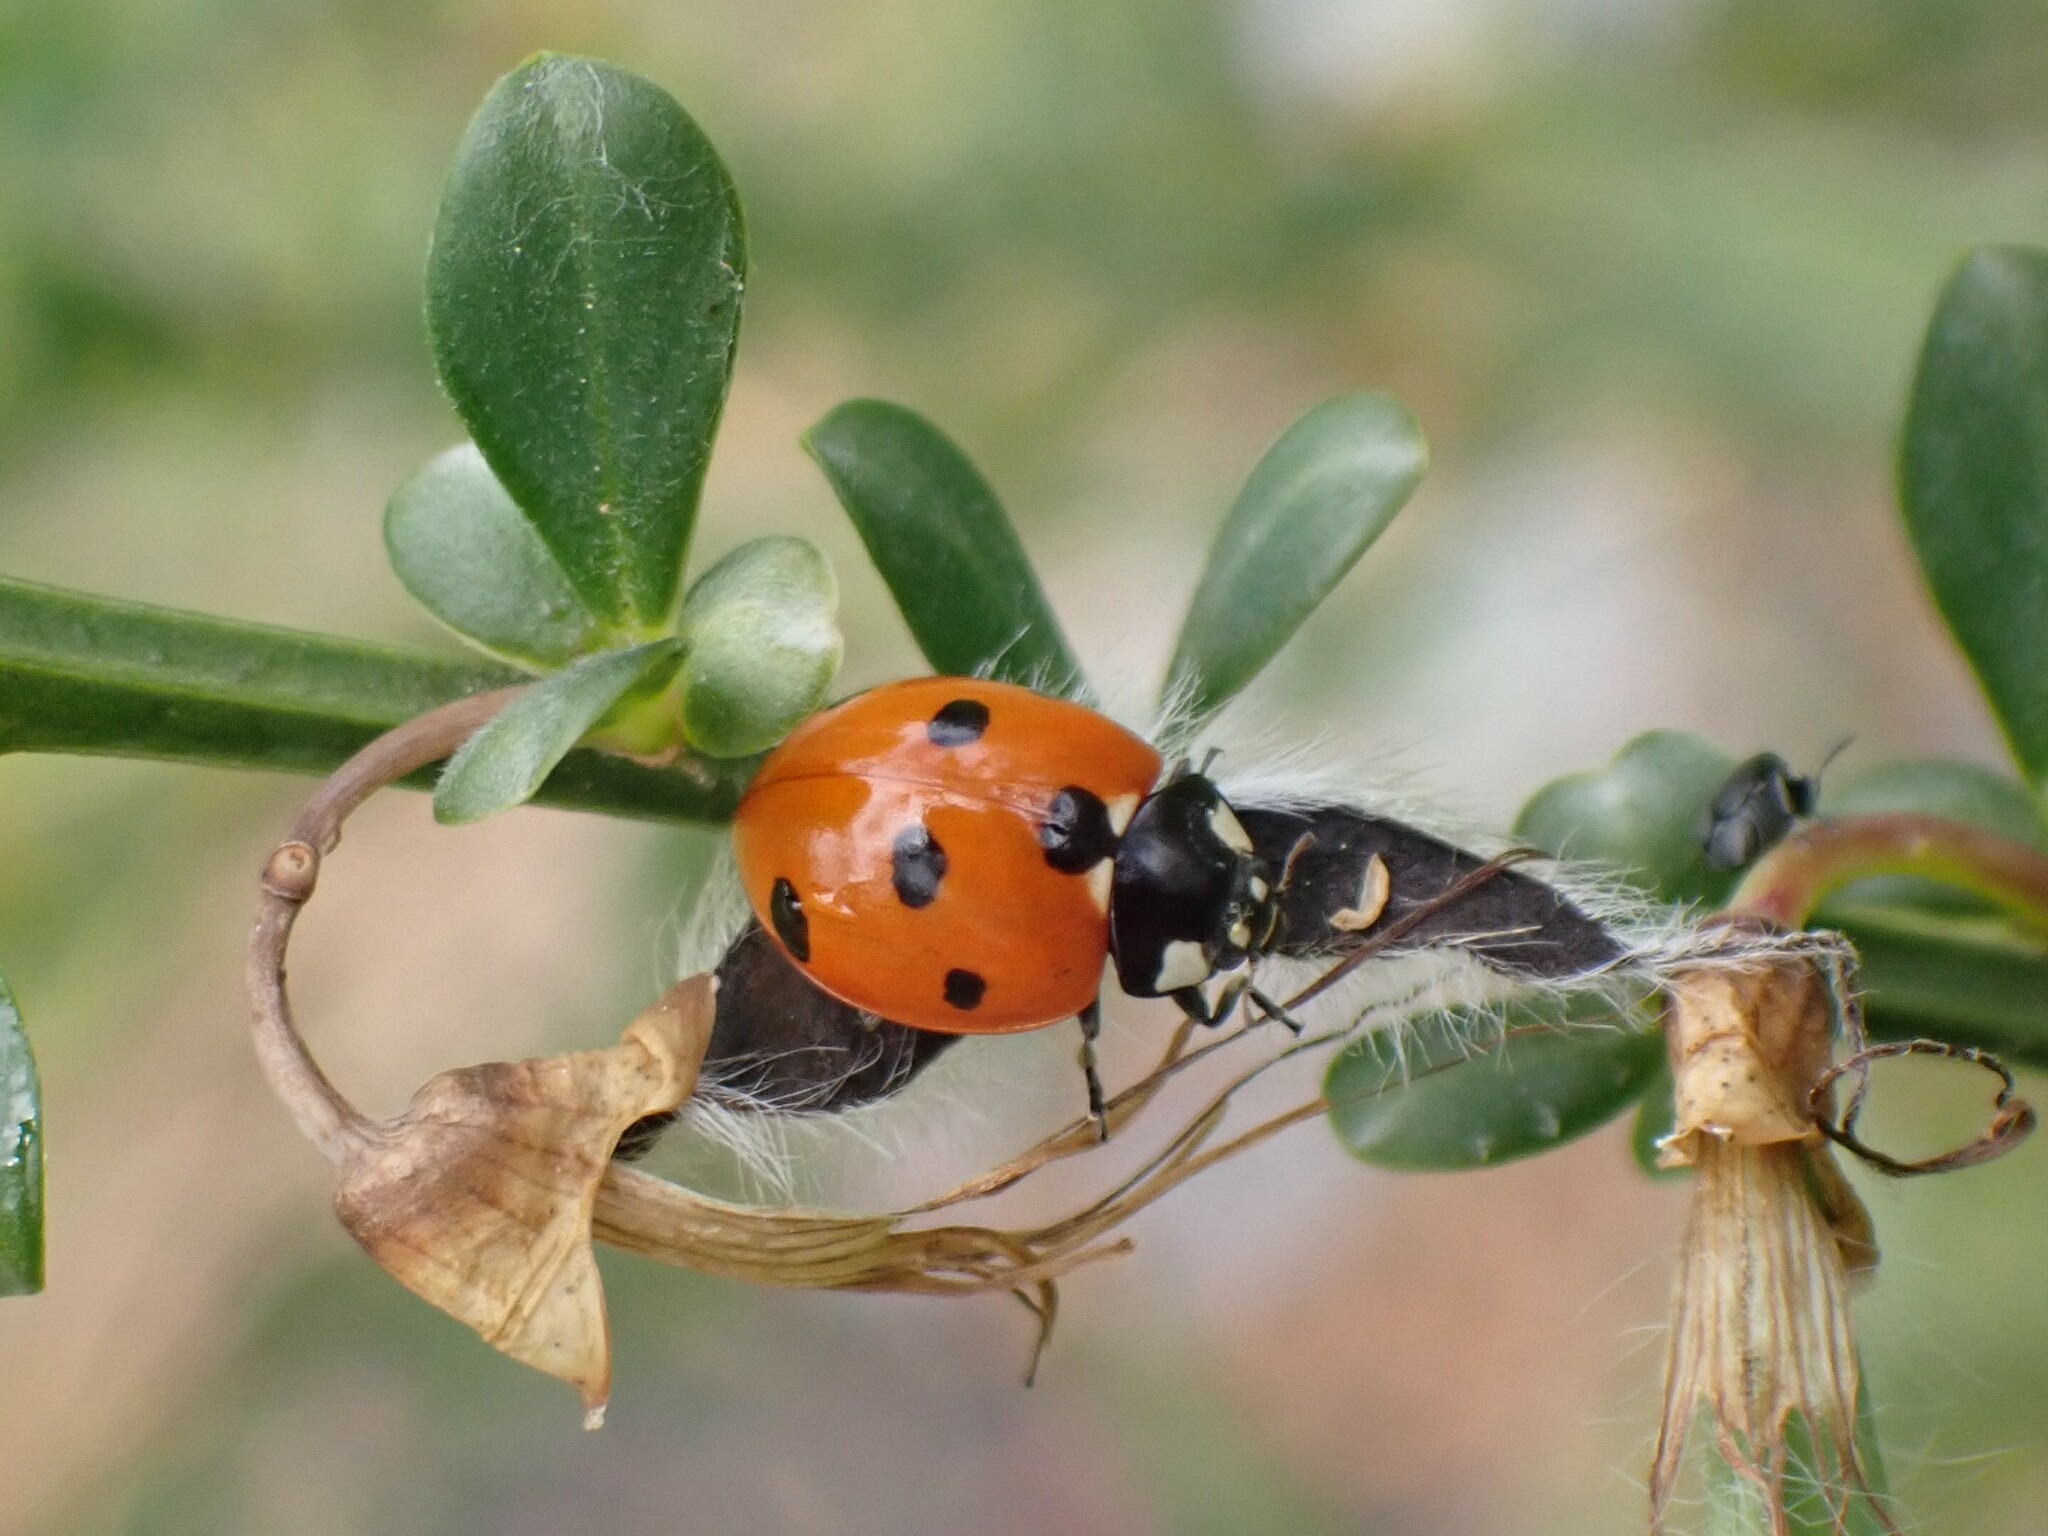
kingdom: Animalia
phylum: Arthropoda
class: Insecta
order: Coleoptera
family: Coccinellidae
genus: Coccinella
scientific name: Coccinella septempunctata
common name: Sevenspotted lady beetle
